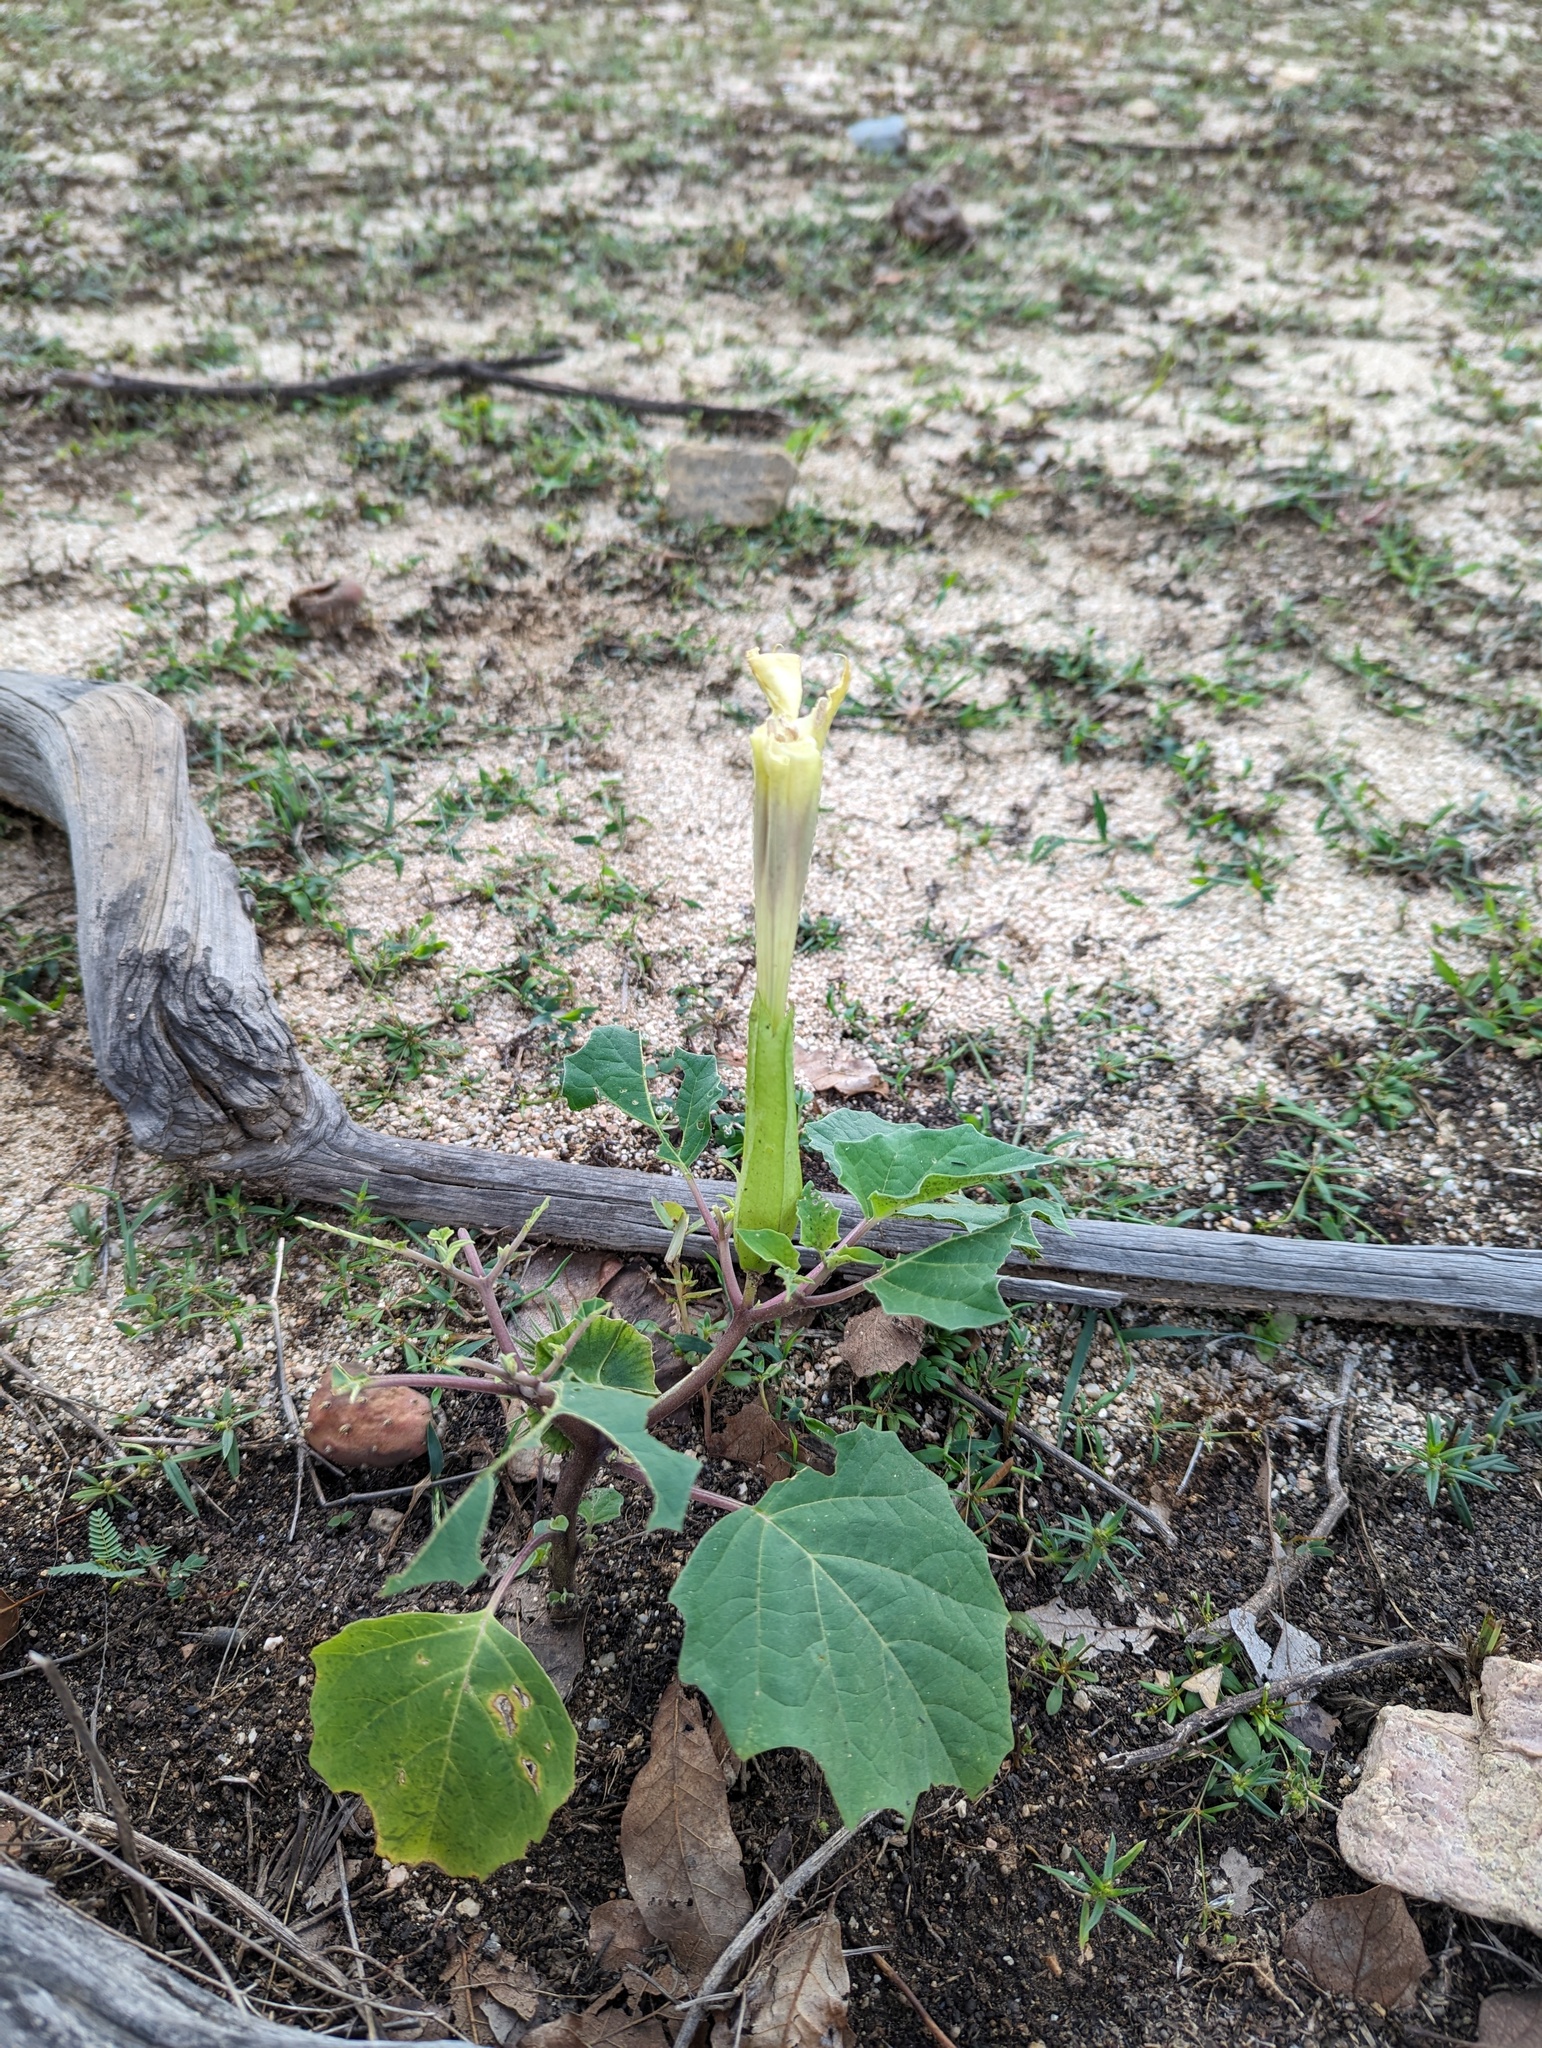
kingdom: Plantae
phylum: Tracheophyta
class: Magnoliopsida
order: Solanales
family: Solanaceae
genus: Datura
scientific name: Datura discolor
